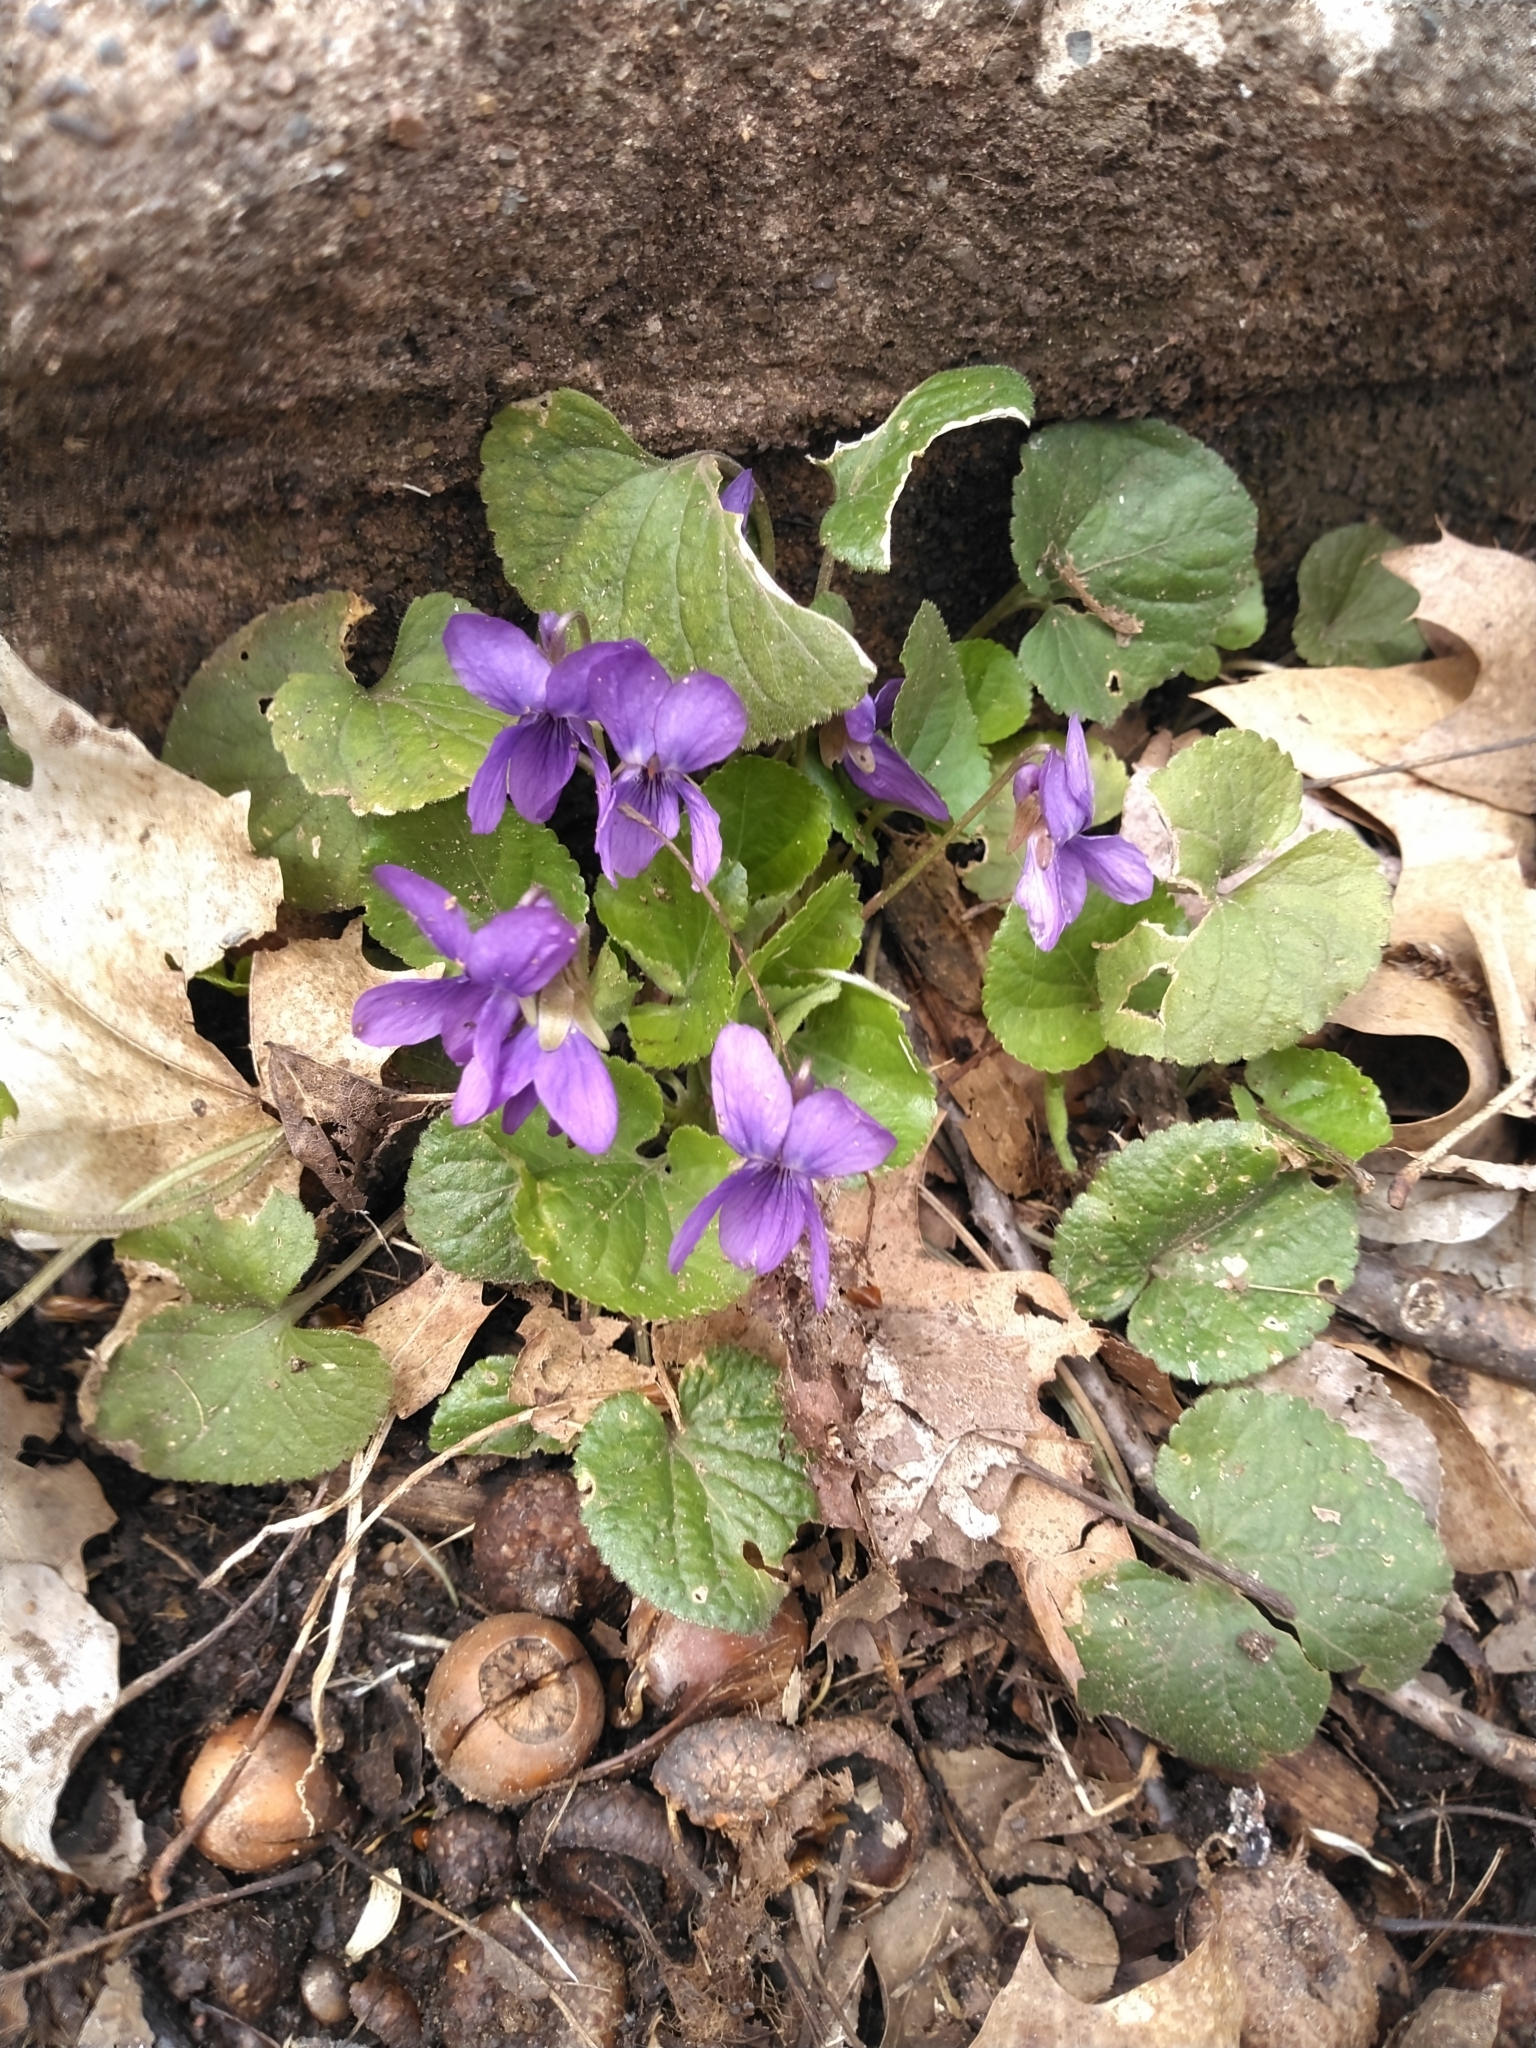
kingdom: Plantae
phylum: Tracheophyta
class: Magnoliopsida
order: Malpighiales
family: Violaceae
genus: Viola
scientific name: Viola sororia
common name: Dooryard violet
